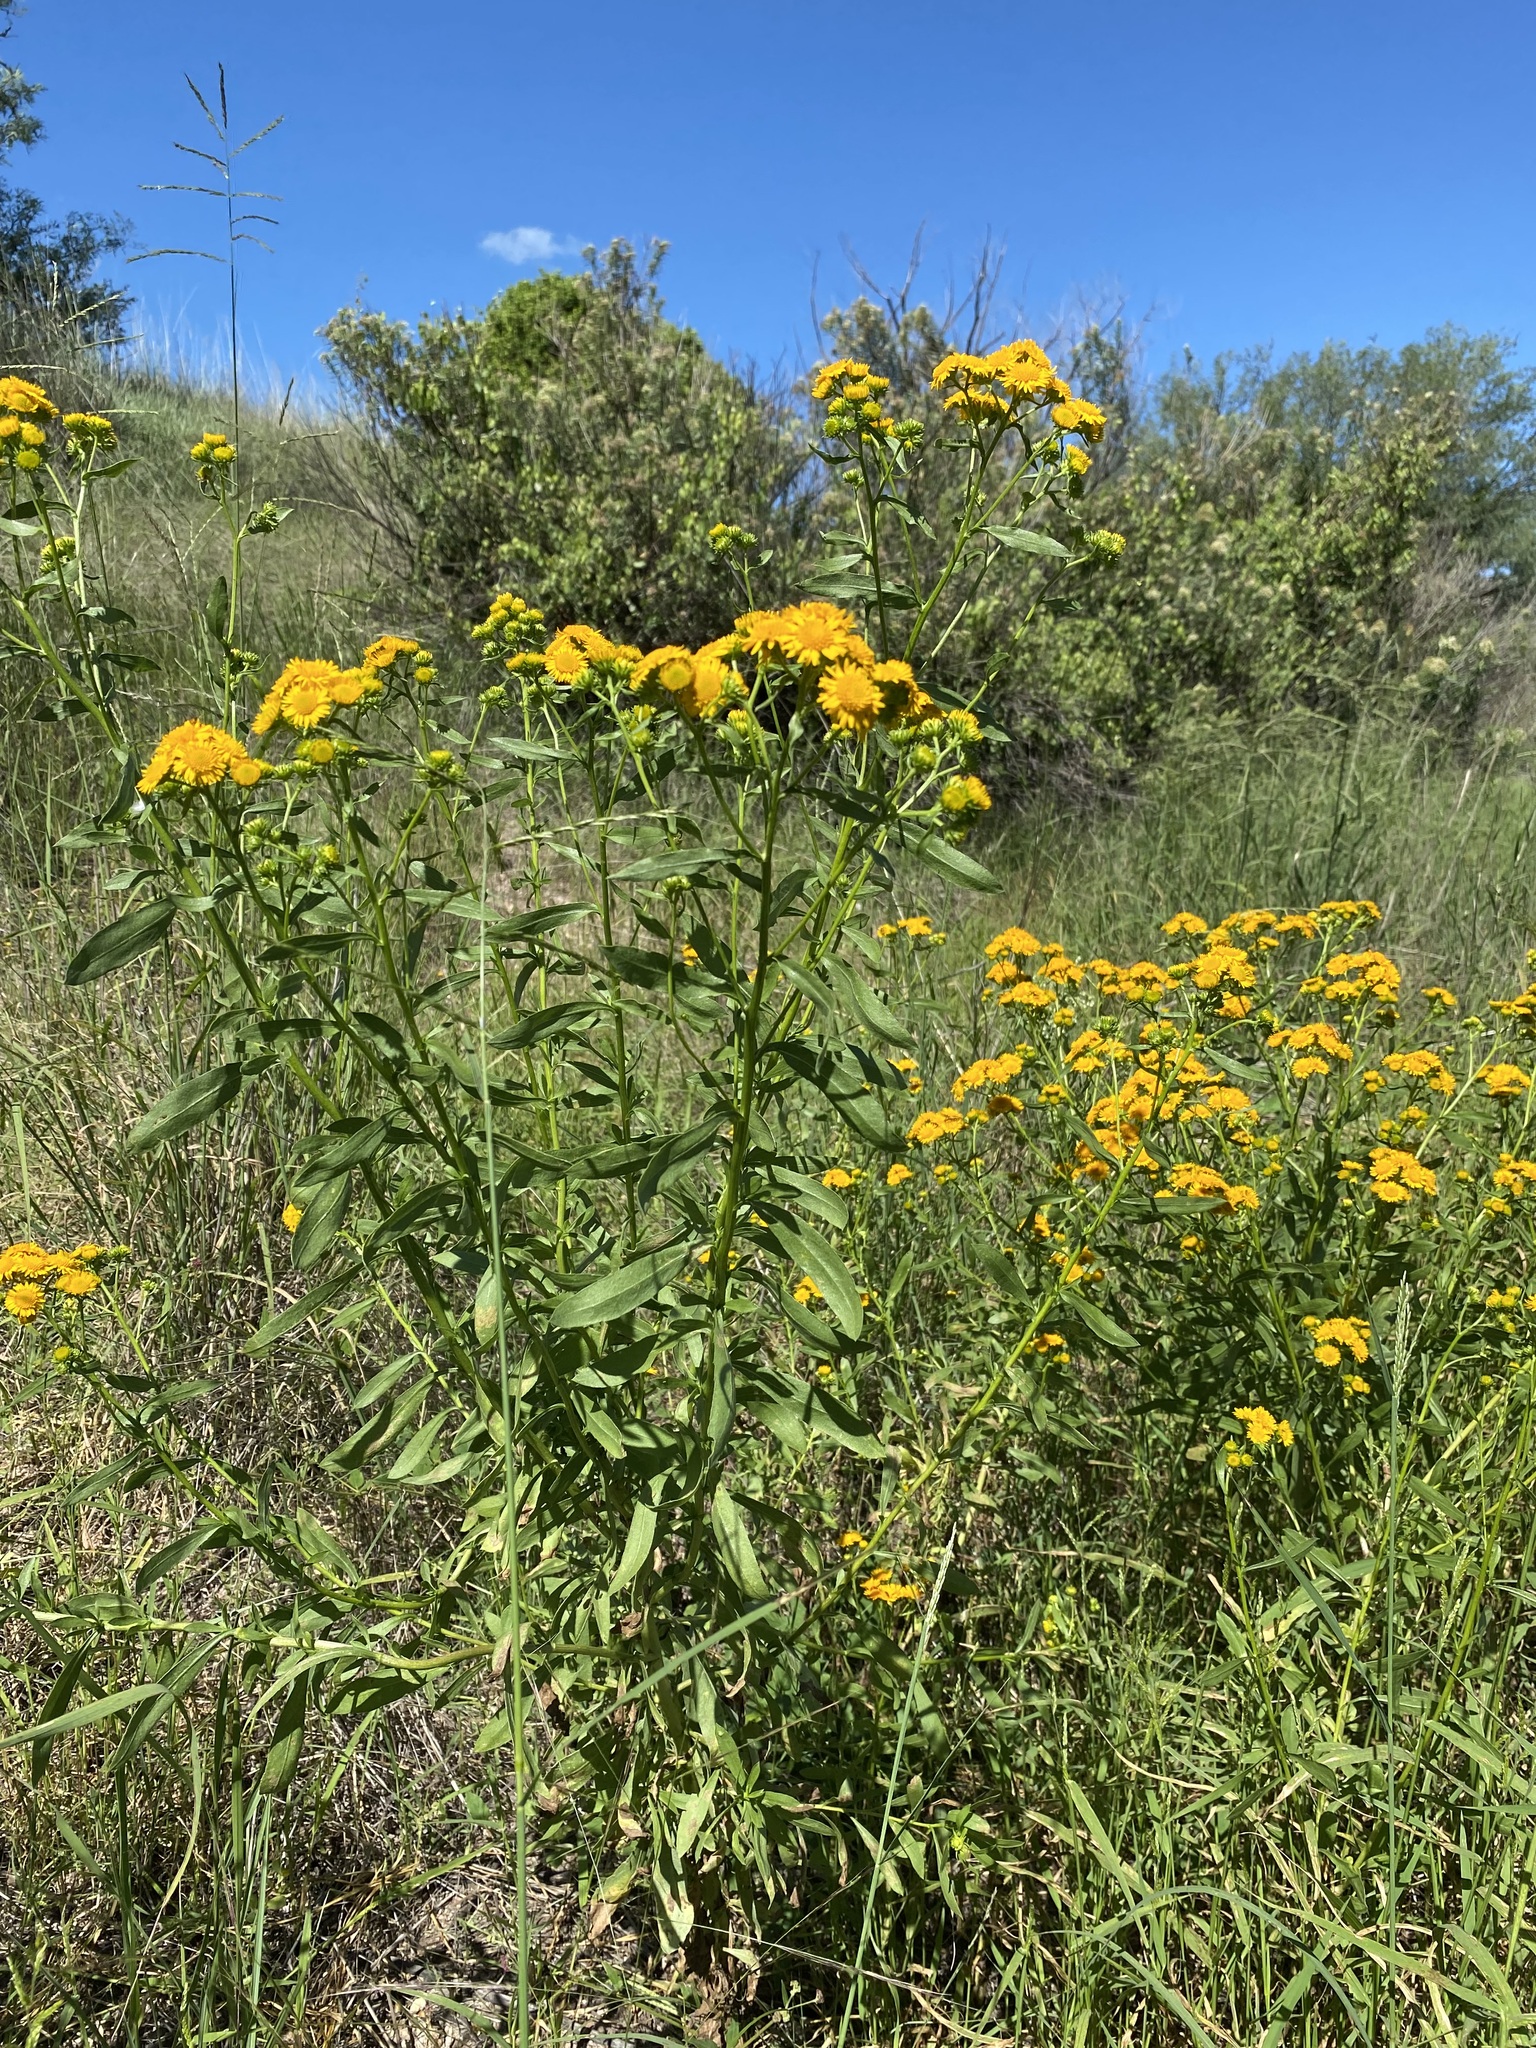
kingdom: Plantae
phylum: Tracheophyta
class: Magnoliopsida
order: Asterales
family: Asteraceae
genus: Xanthocephalum
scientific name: Xanthocephalum gymnospermoides
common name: San pedro matchweed
